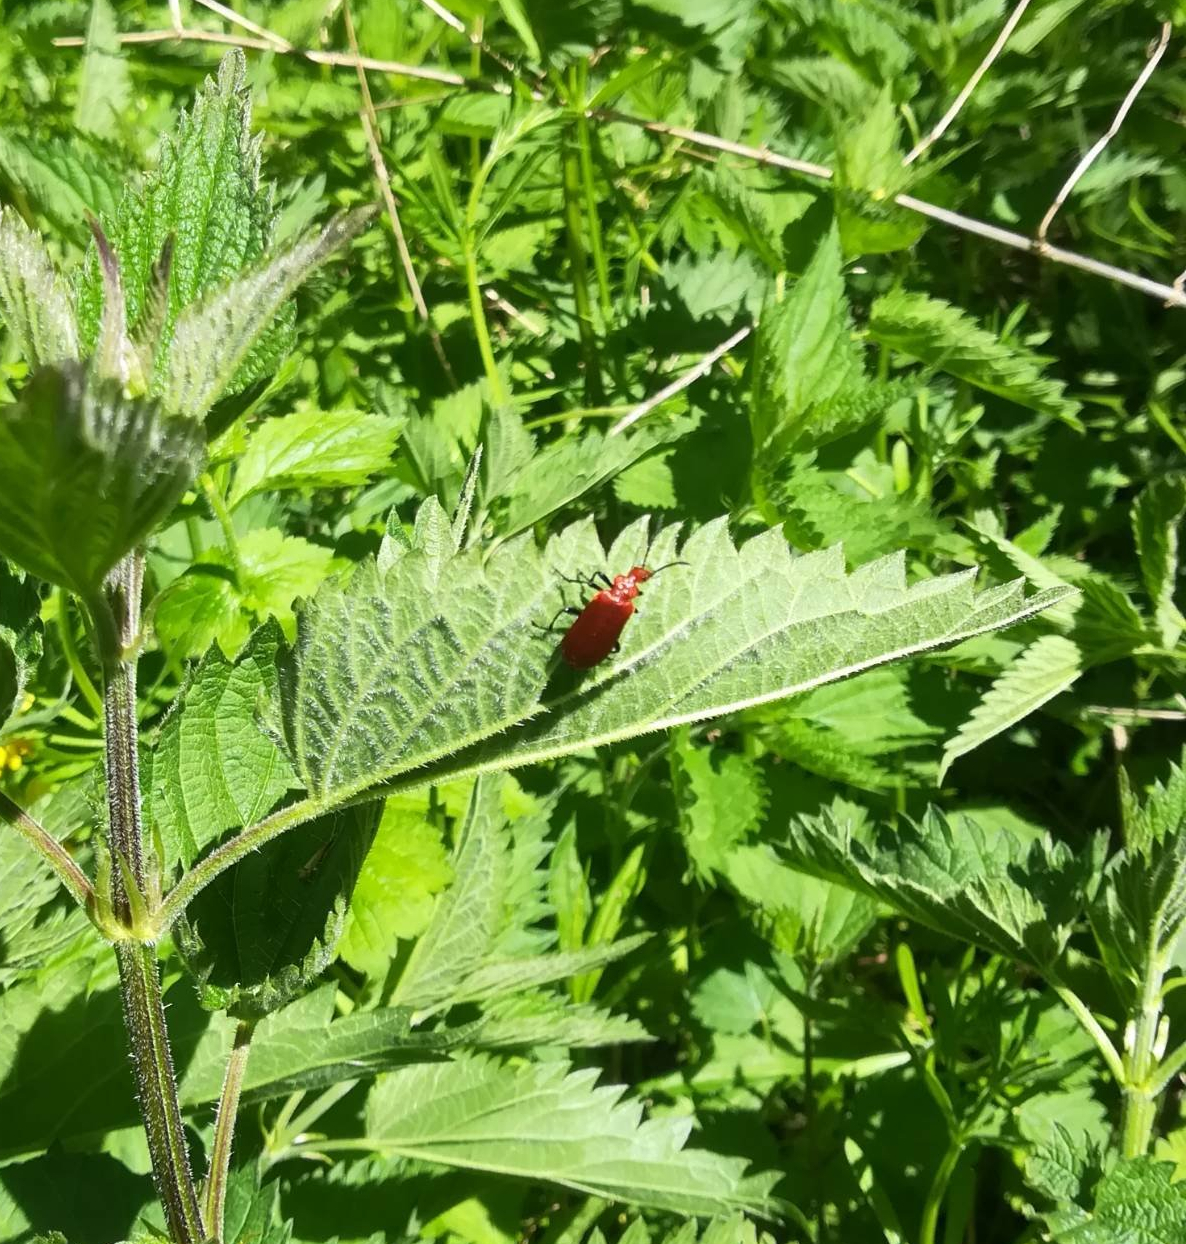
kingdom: Animalia
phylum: Arthropoda
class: Insecta
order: Coleoptera
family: Pyrochroidae
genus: Pyrochroa
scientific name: Pyrochroa serraticornis
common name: Red-headed cardinal beetle
